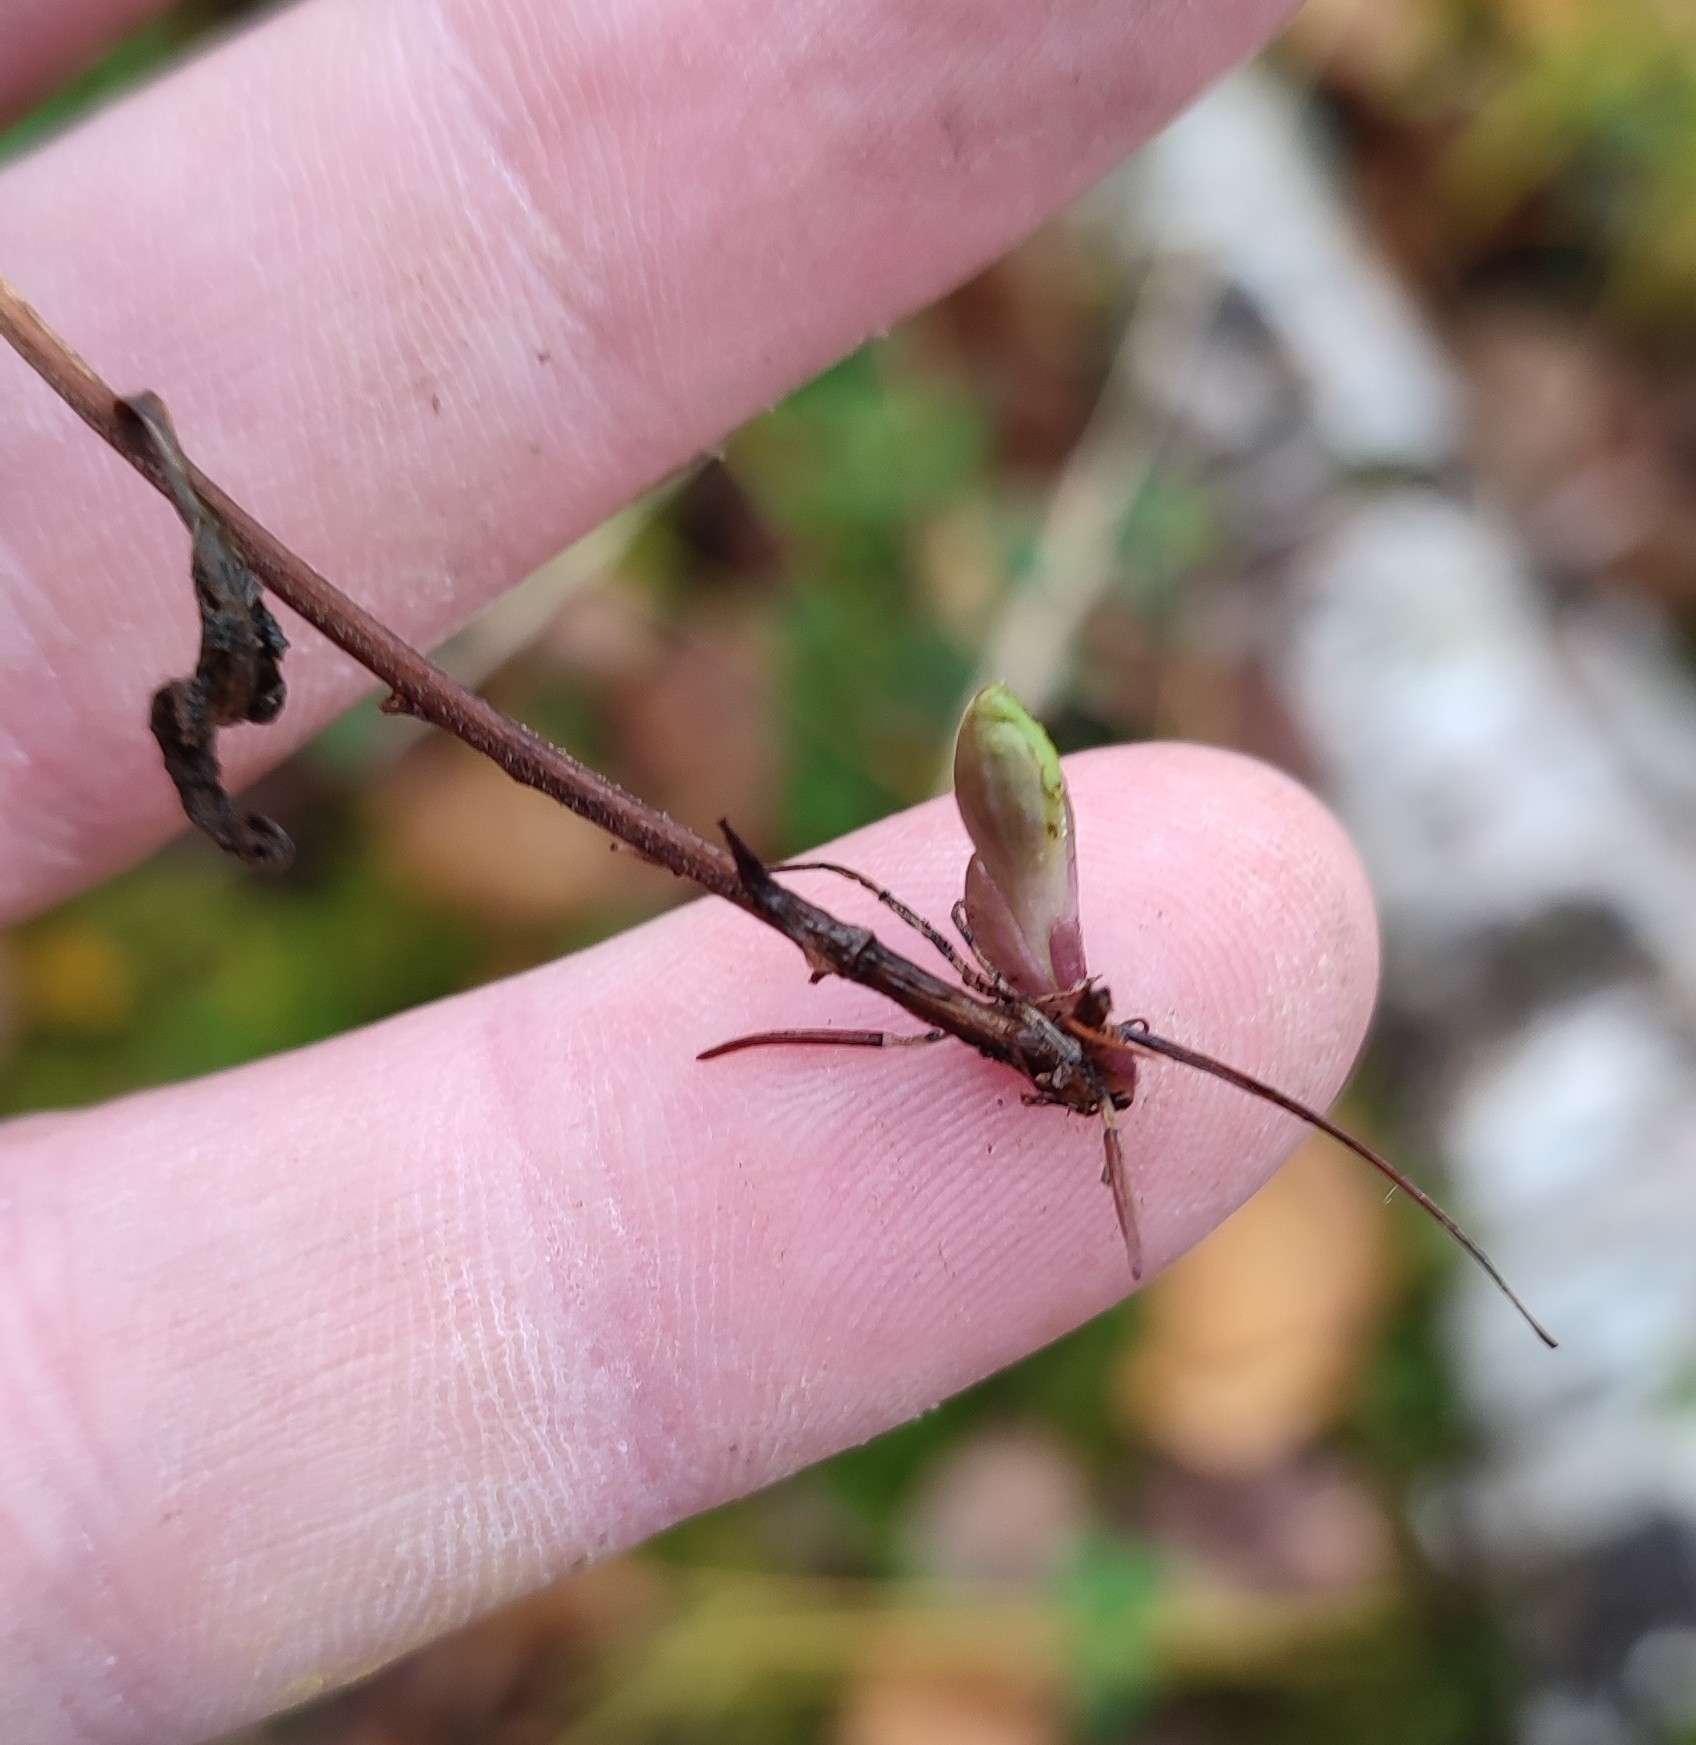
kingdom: Plantae
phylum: Tracheophyta
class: Magnoliopsida
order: Lamiales
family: Orobanchaceae
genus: Pedicularis
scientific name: Pedicularis lapponica
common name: Lapland lousewort
